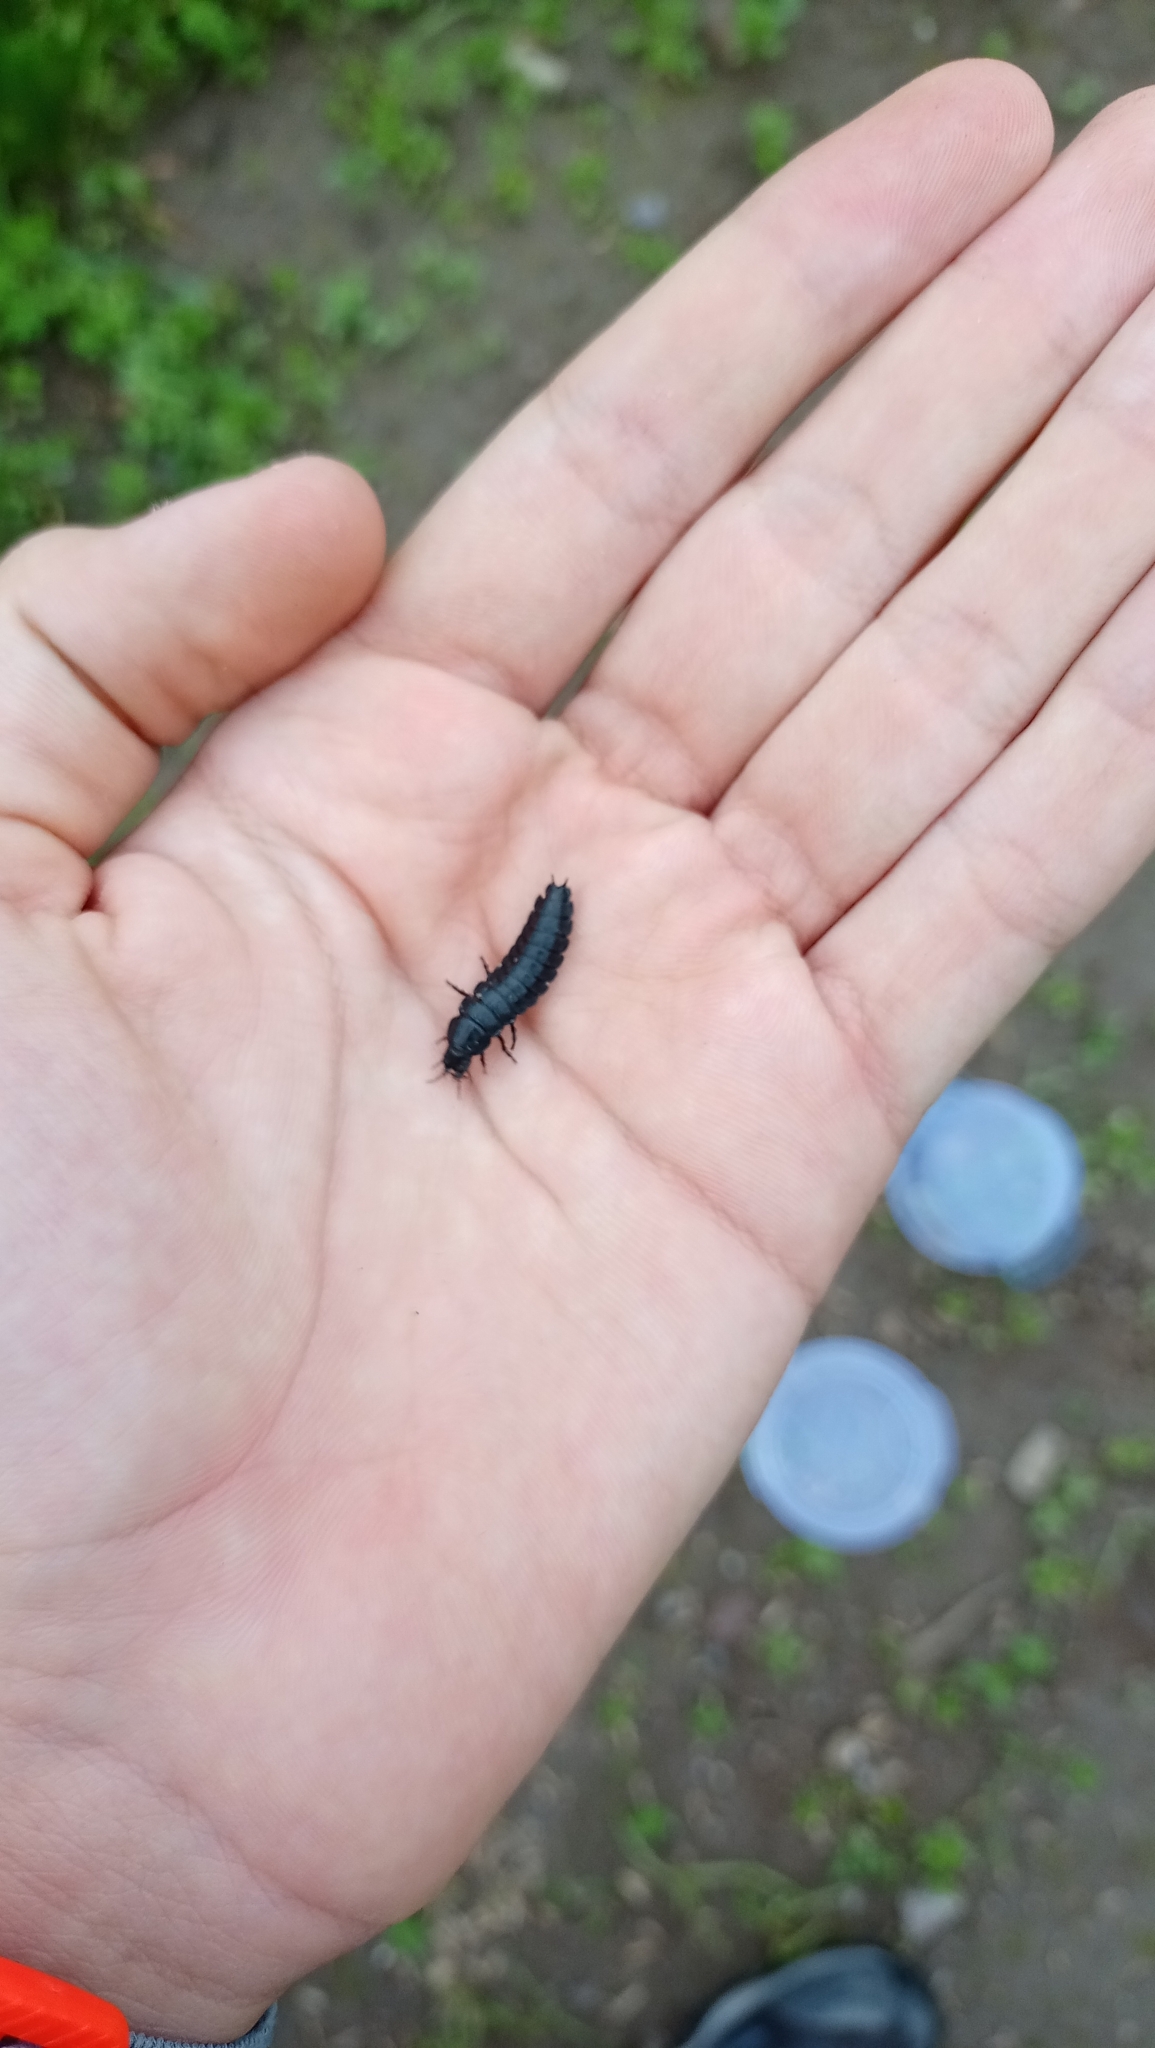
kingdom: Animalia
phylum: Arthropoda
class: Insecta
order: Coleoptera
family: Carabidae
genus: Carabus
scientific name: Carabus
